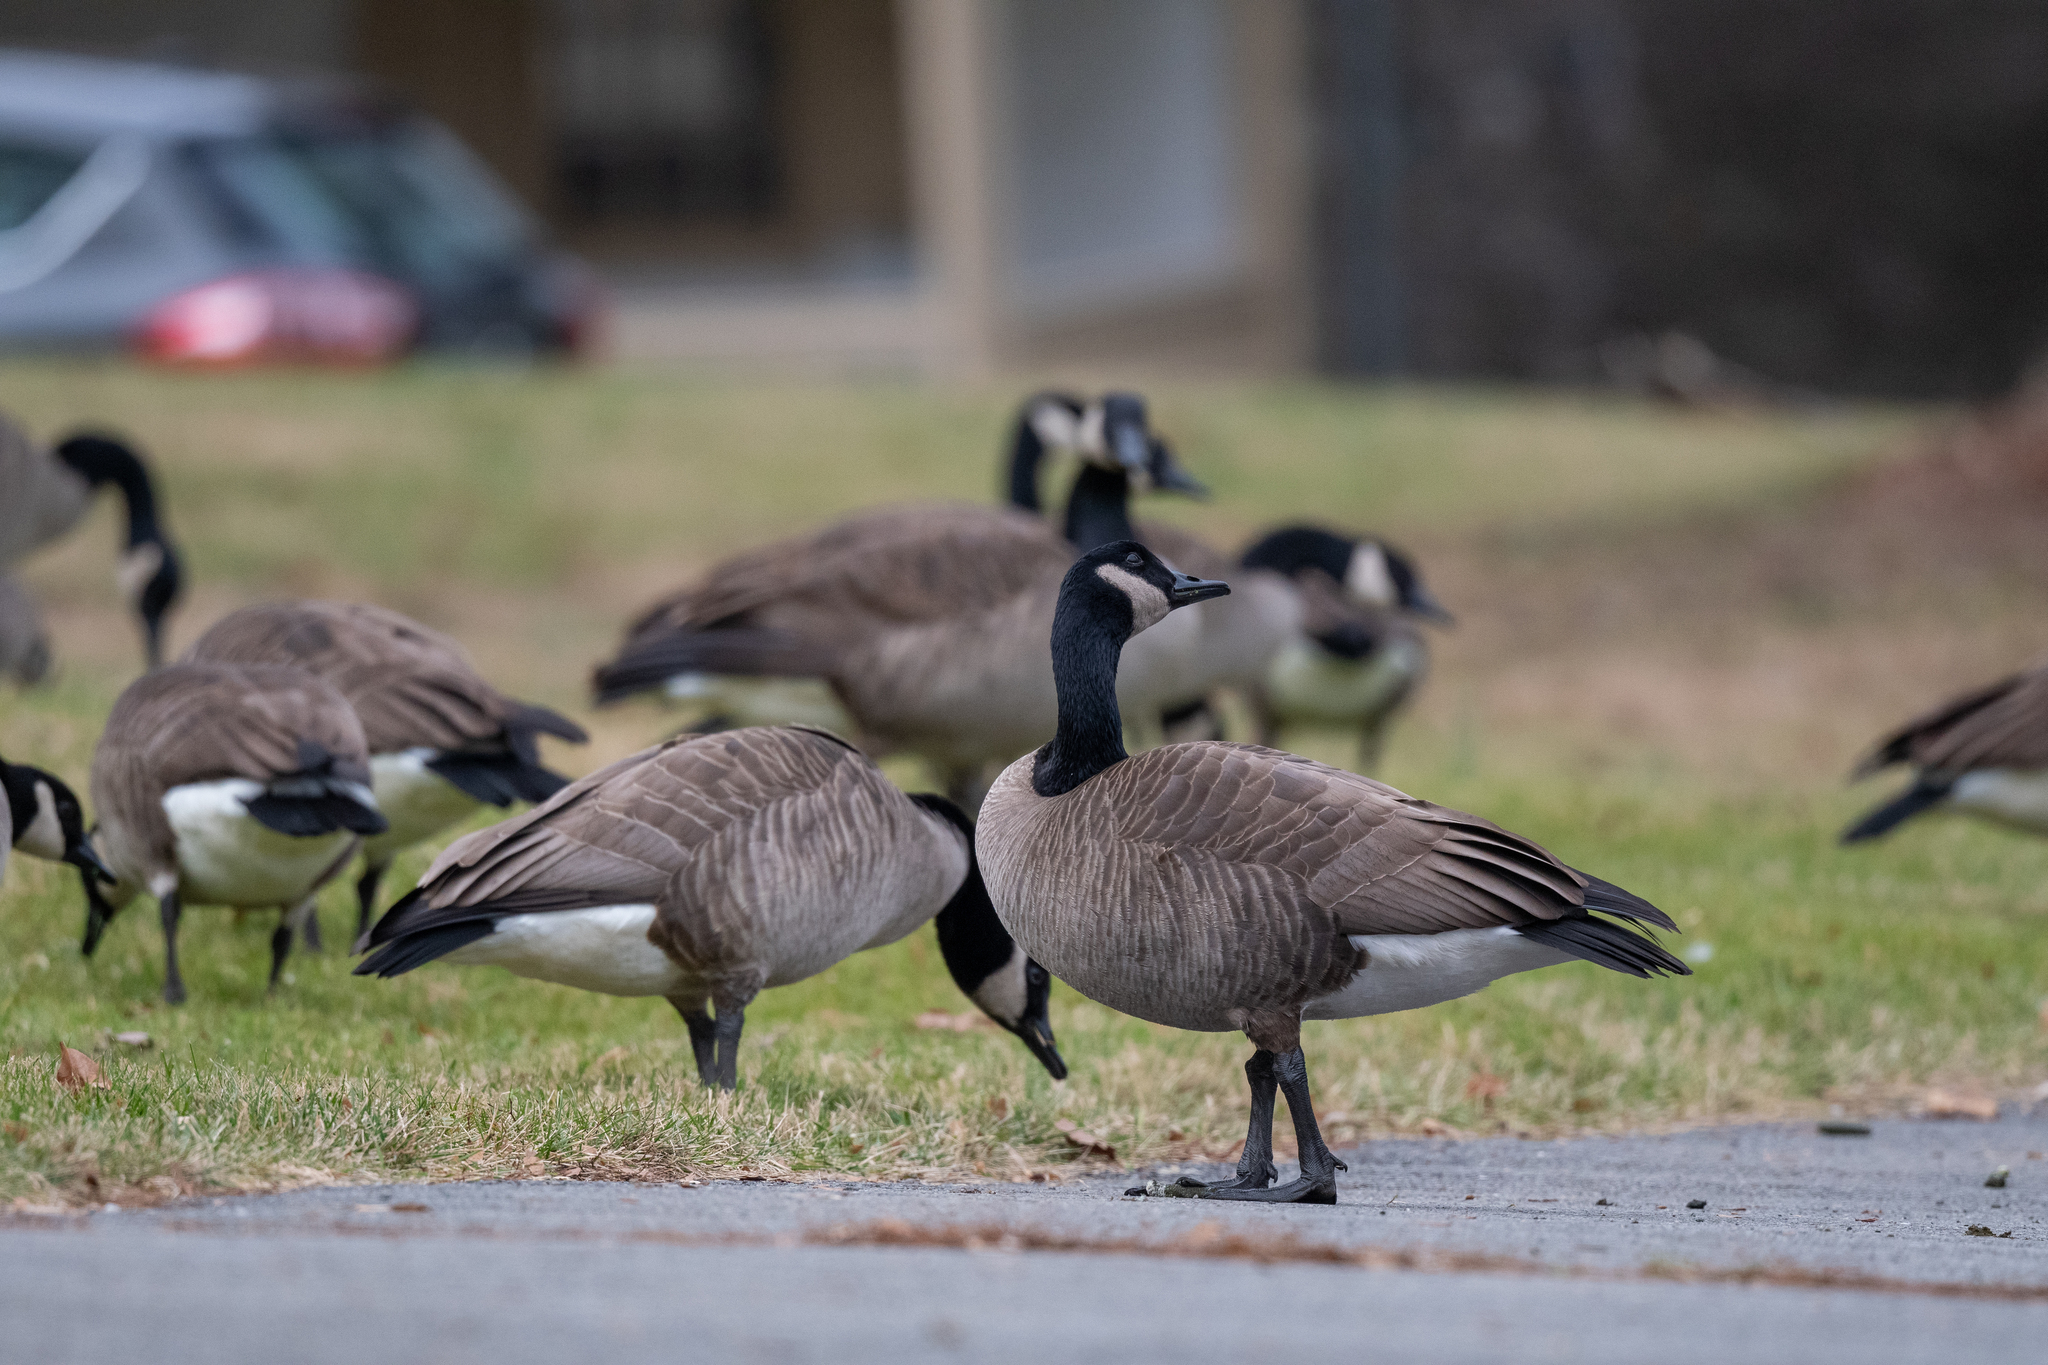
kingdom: Animalia
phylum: Chordata
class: Aves
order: Anseriformes
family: Anatidae
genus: Branta
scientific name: Branta canadensis
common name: Canada goose
